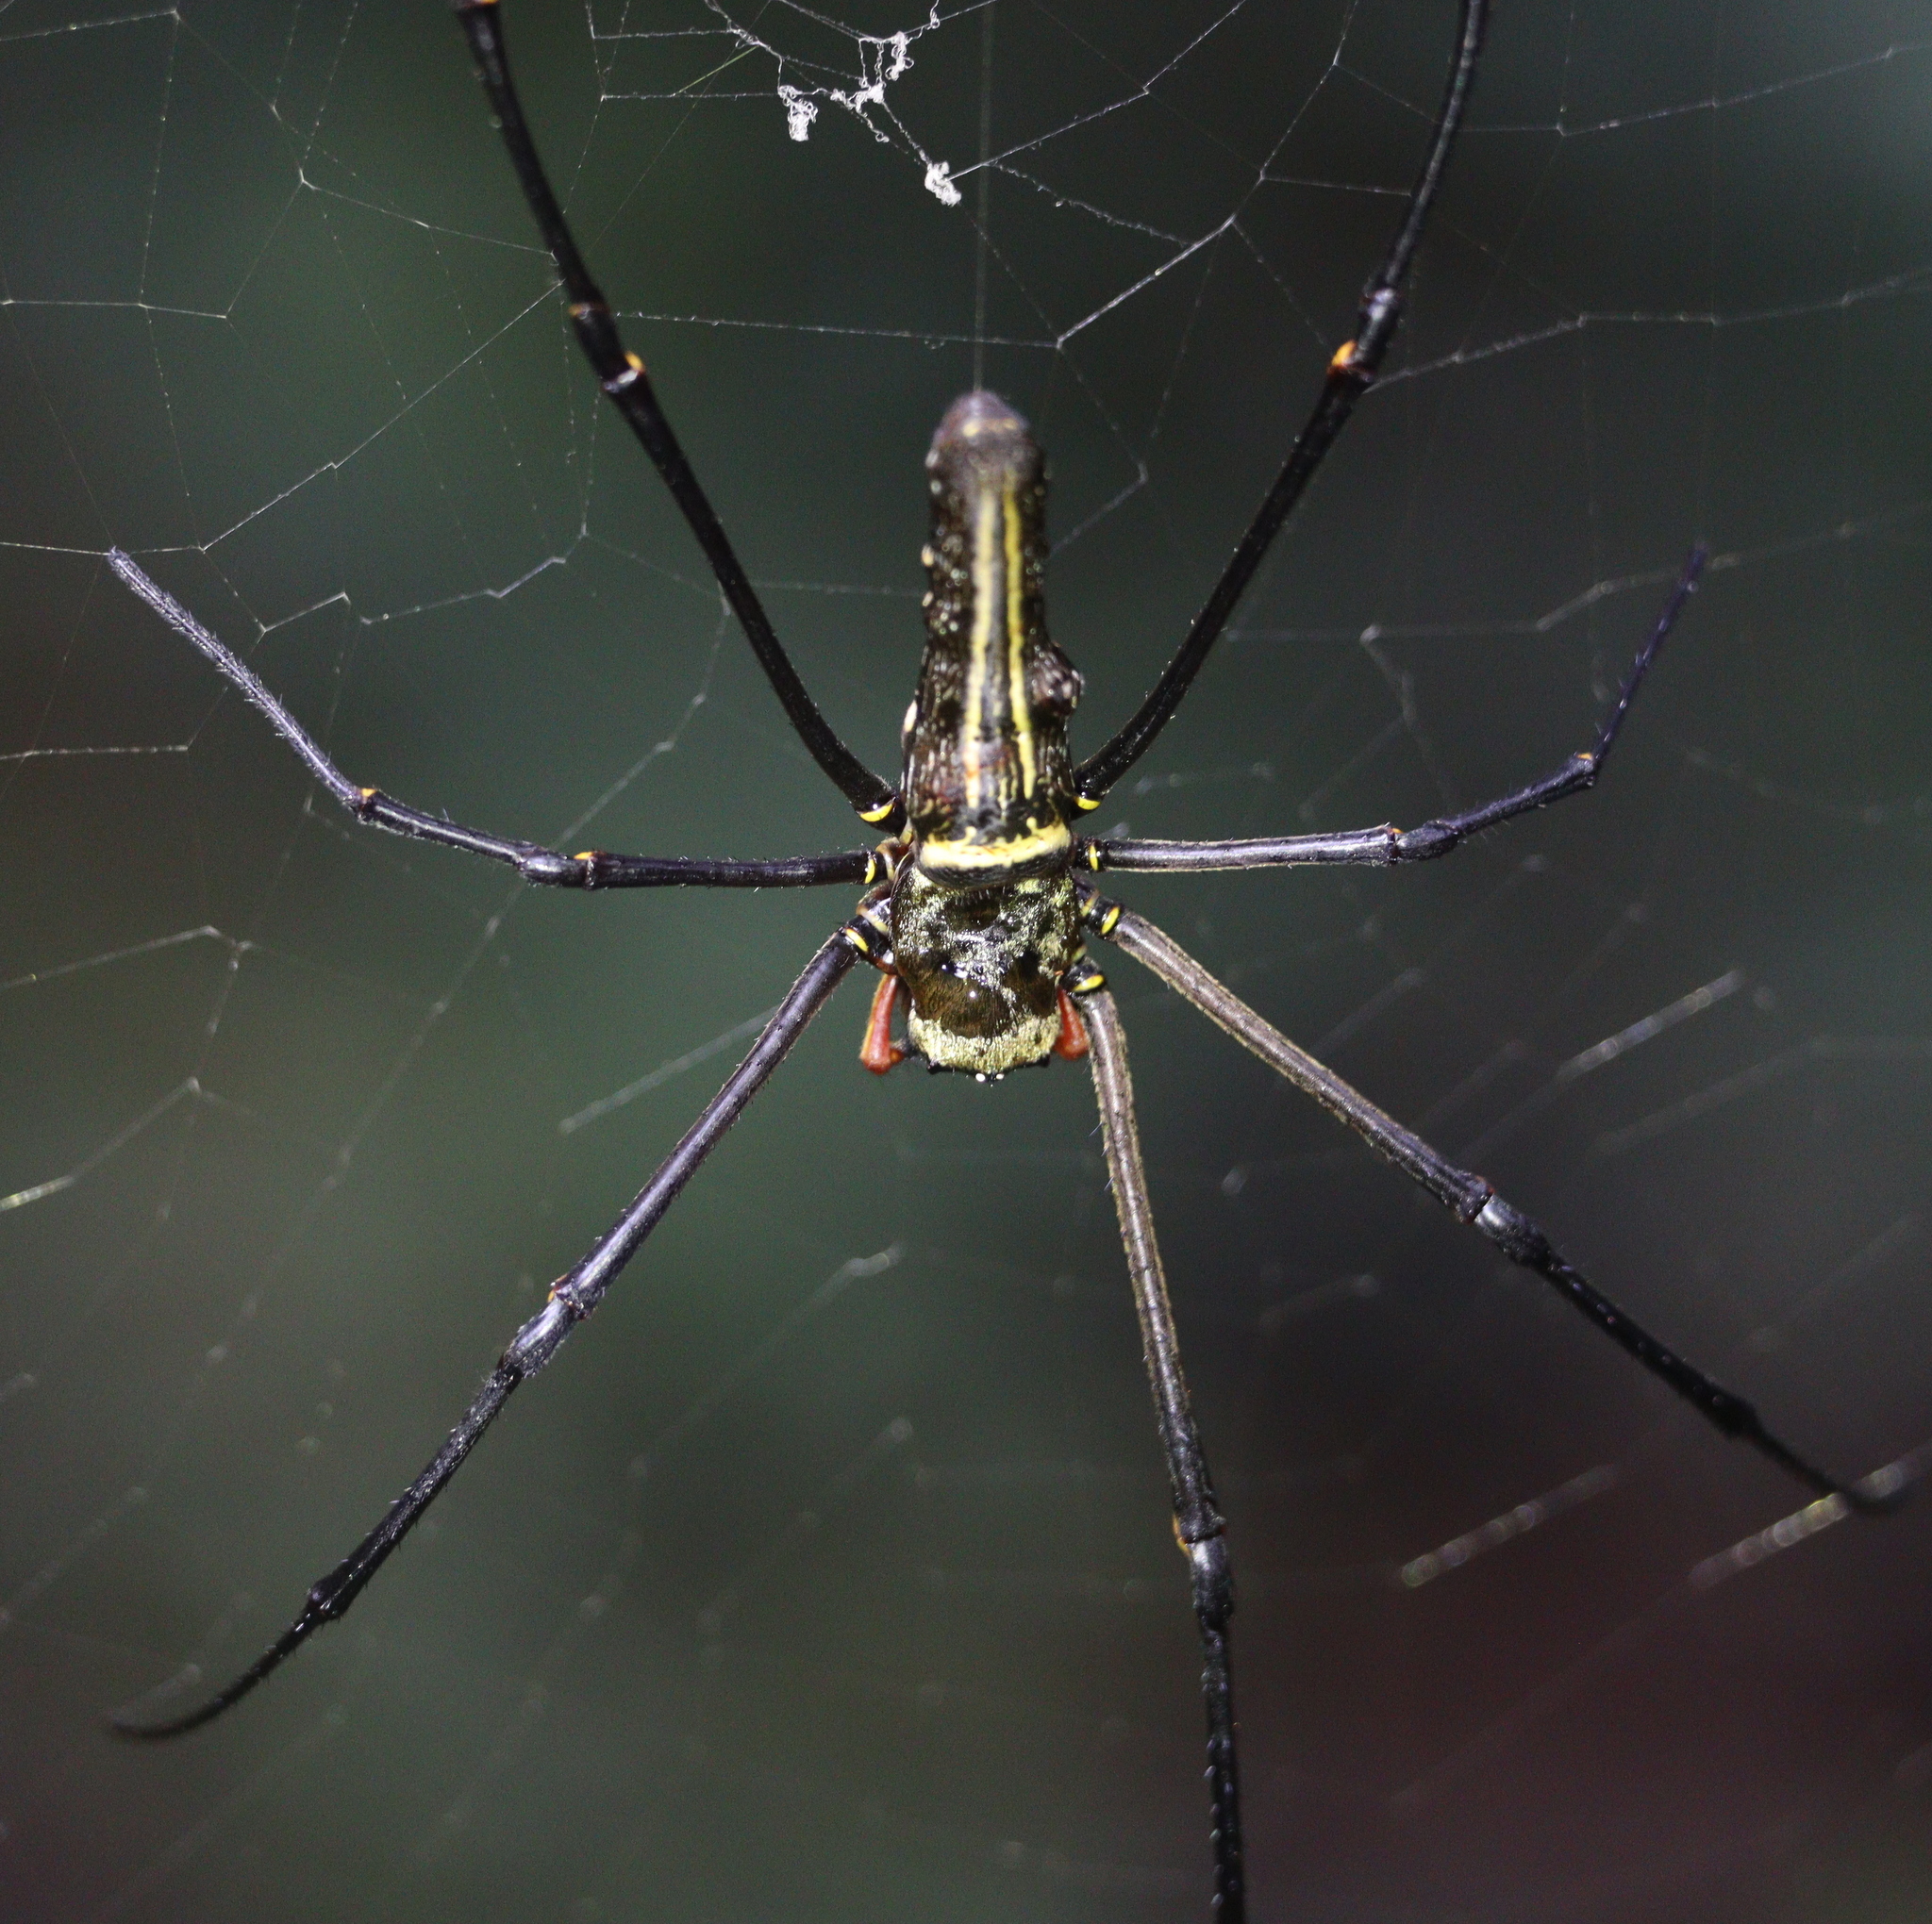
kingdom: Animalia
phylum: Arthropoda
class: Arachnida
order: Araneae
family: Araneidae
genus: Nephila
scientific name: Nephila pilipes
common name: Giant golden orb weaver
